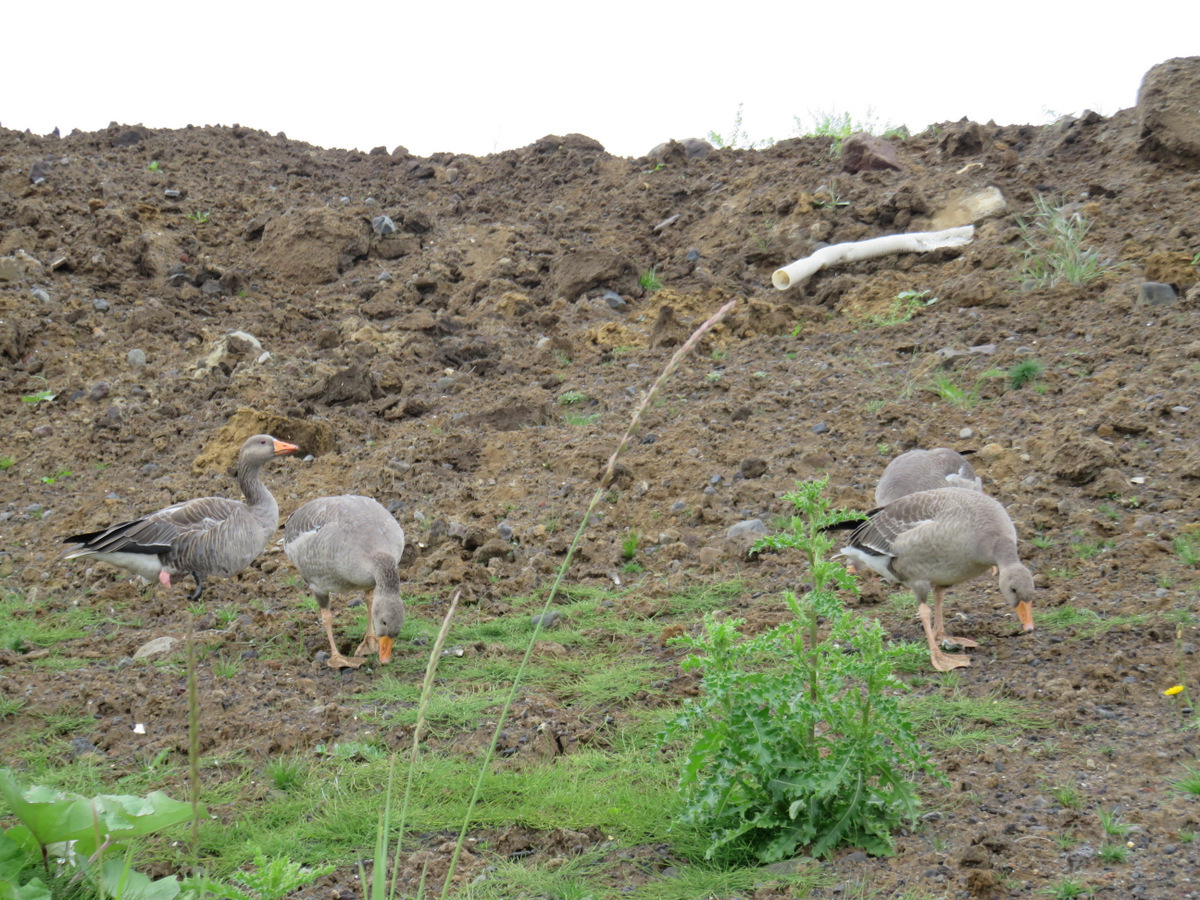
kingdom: Animalia
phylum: Chordata
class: Aves
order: Anseriformes
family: Anatidae
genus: Anser
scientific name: Anser anser
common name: Greylag goose
